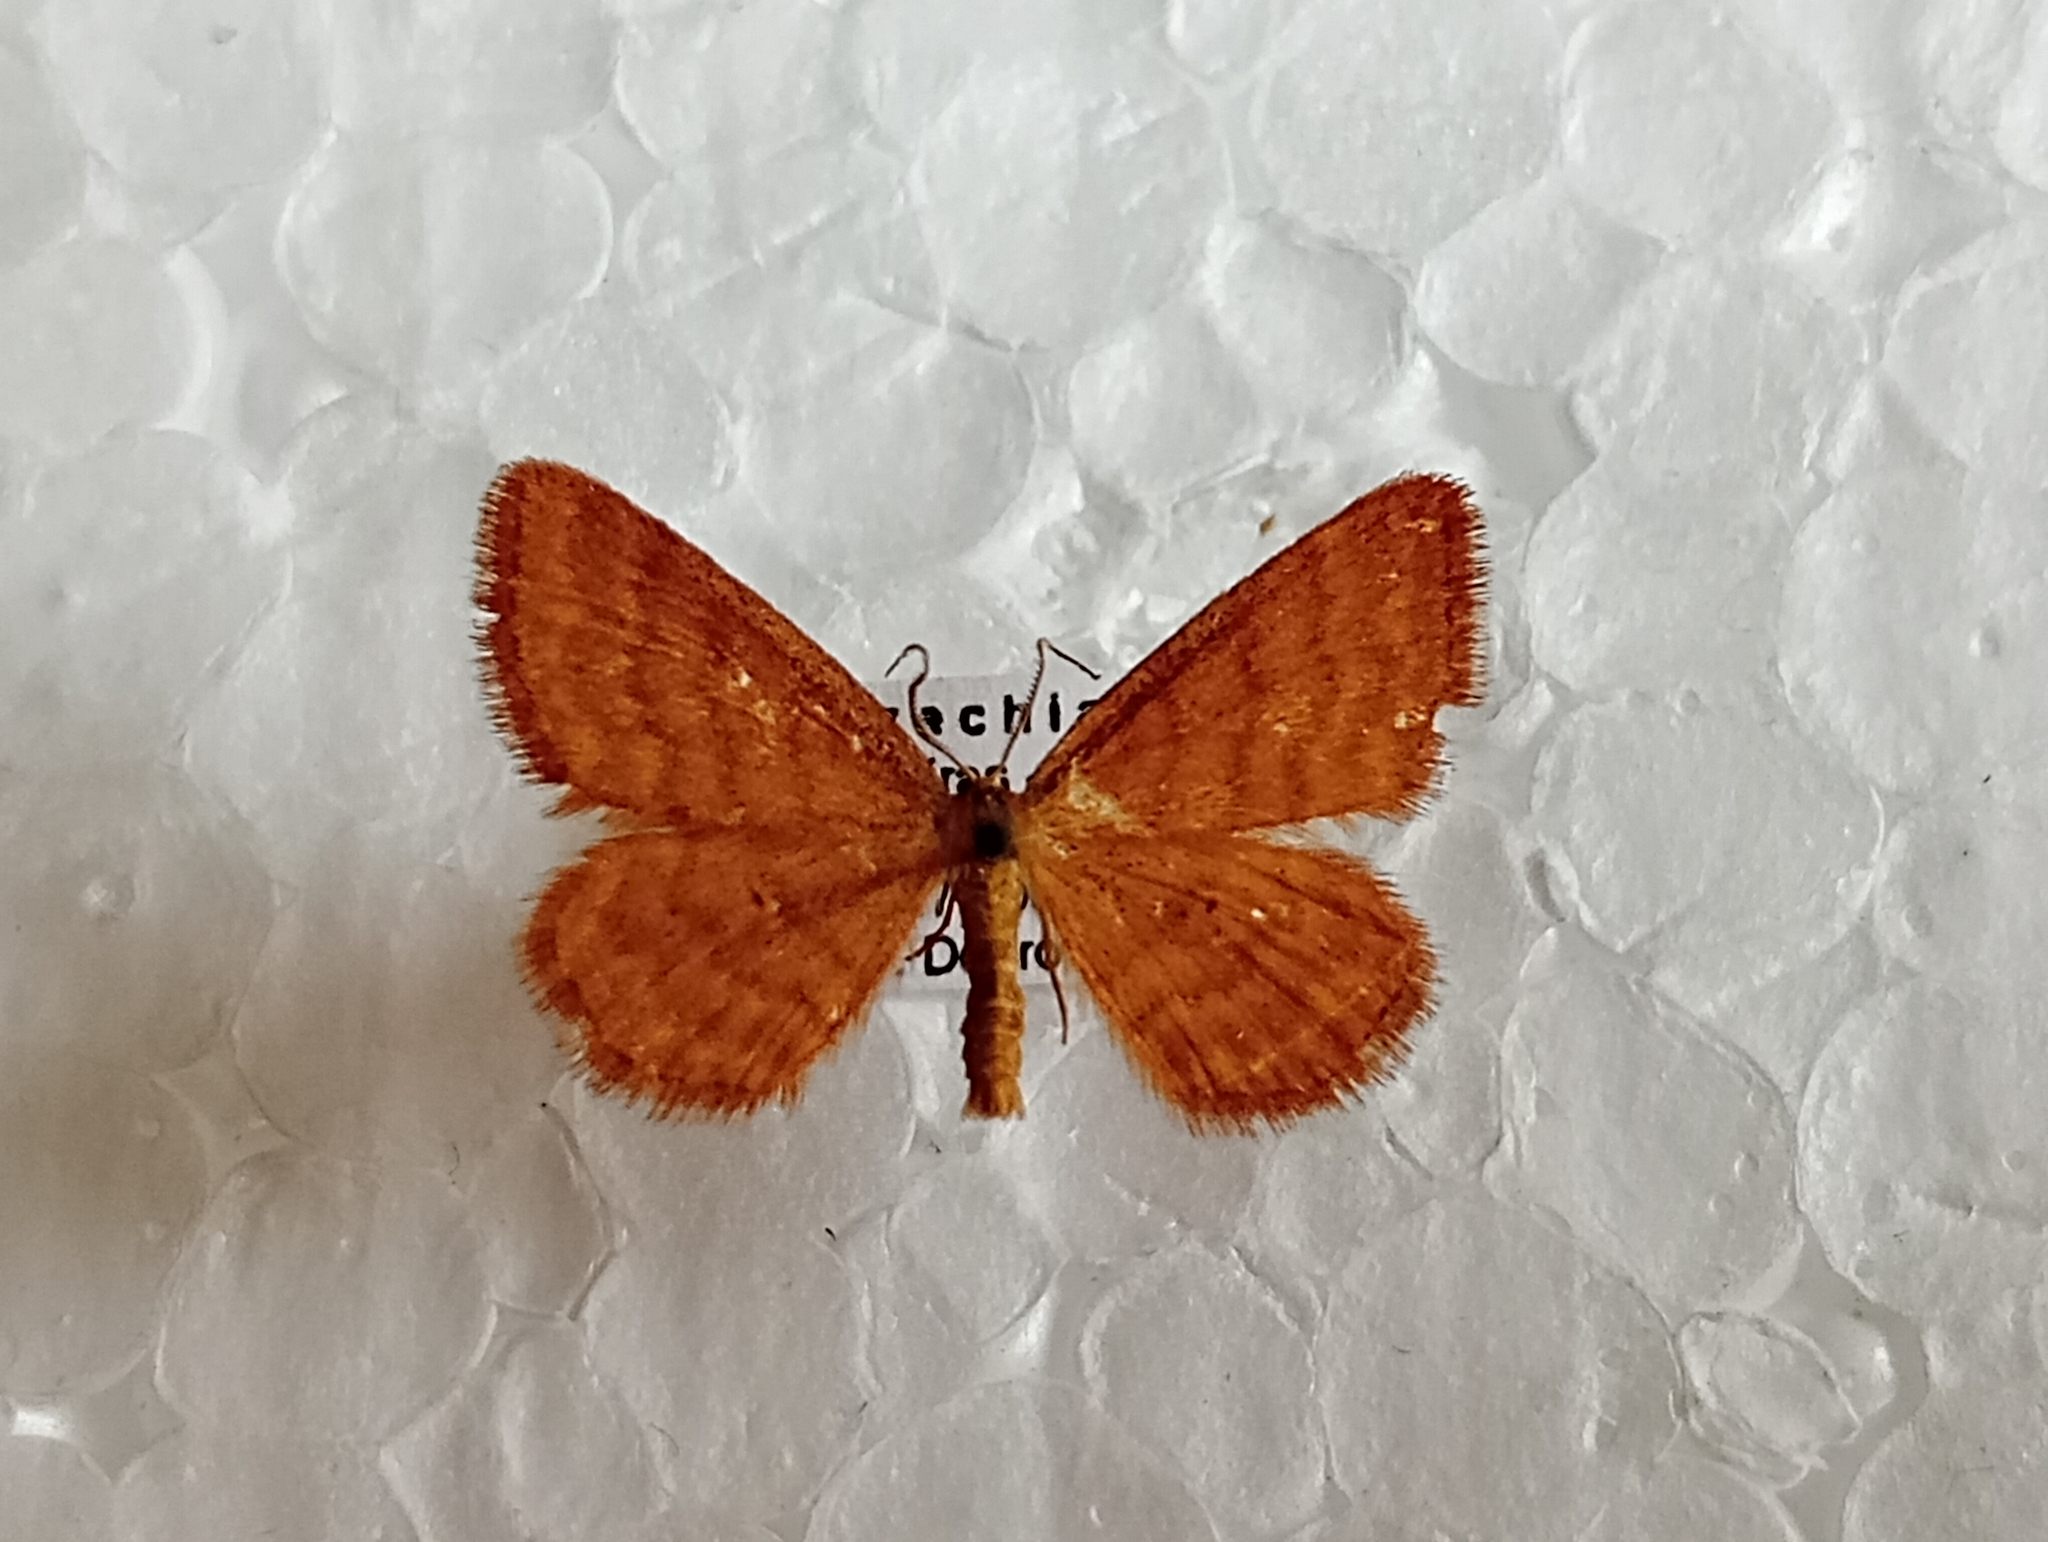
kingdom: Animalia
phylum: Arthropoda
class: Insecta
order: Lepidoptera
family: Geometridae
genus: Idaea
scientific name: Idaea serpentata
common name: Ochraceous wave
